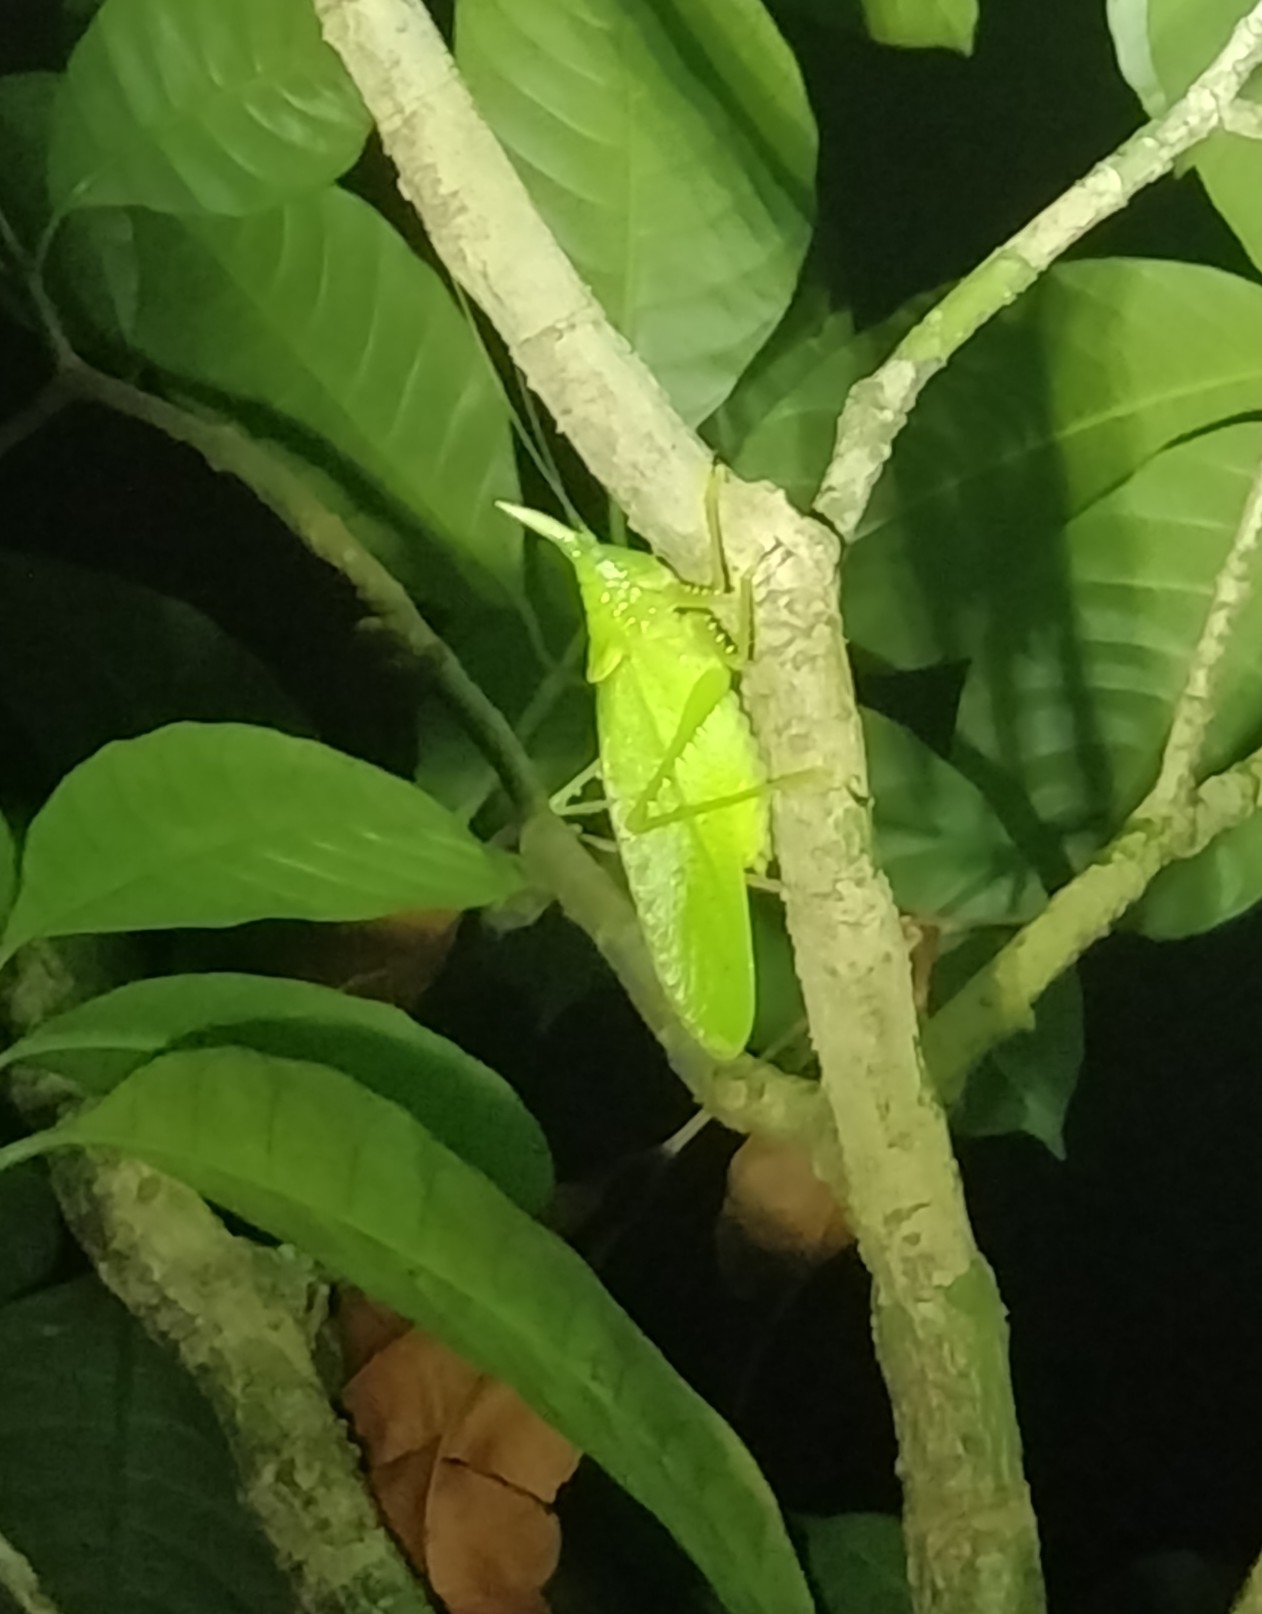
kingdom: Animalia
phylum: Arthropoda
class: Insecta
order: Orthoptera
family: Tettigoniidae
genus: Copiphora
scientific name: Copiphora rhinoceros
